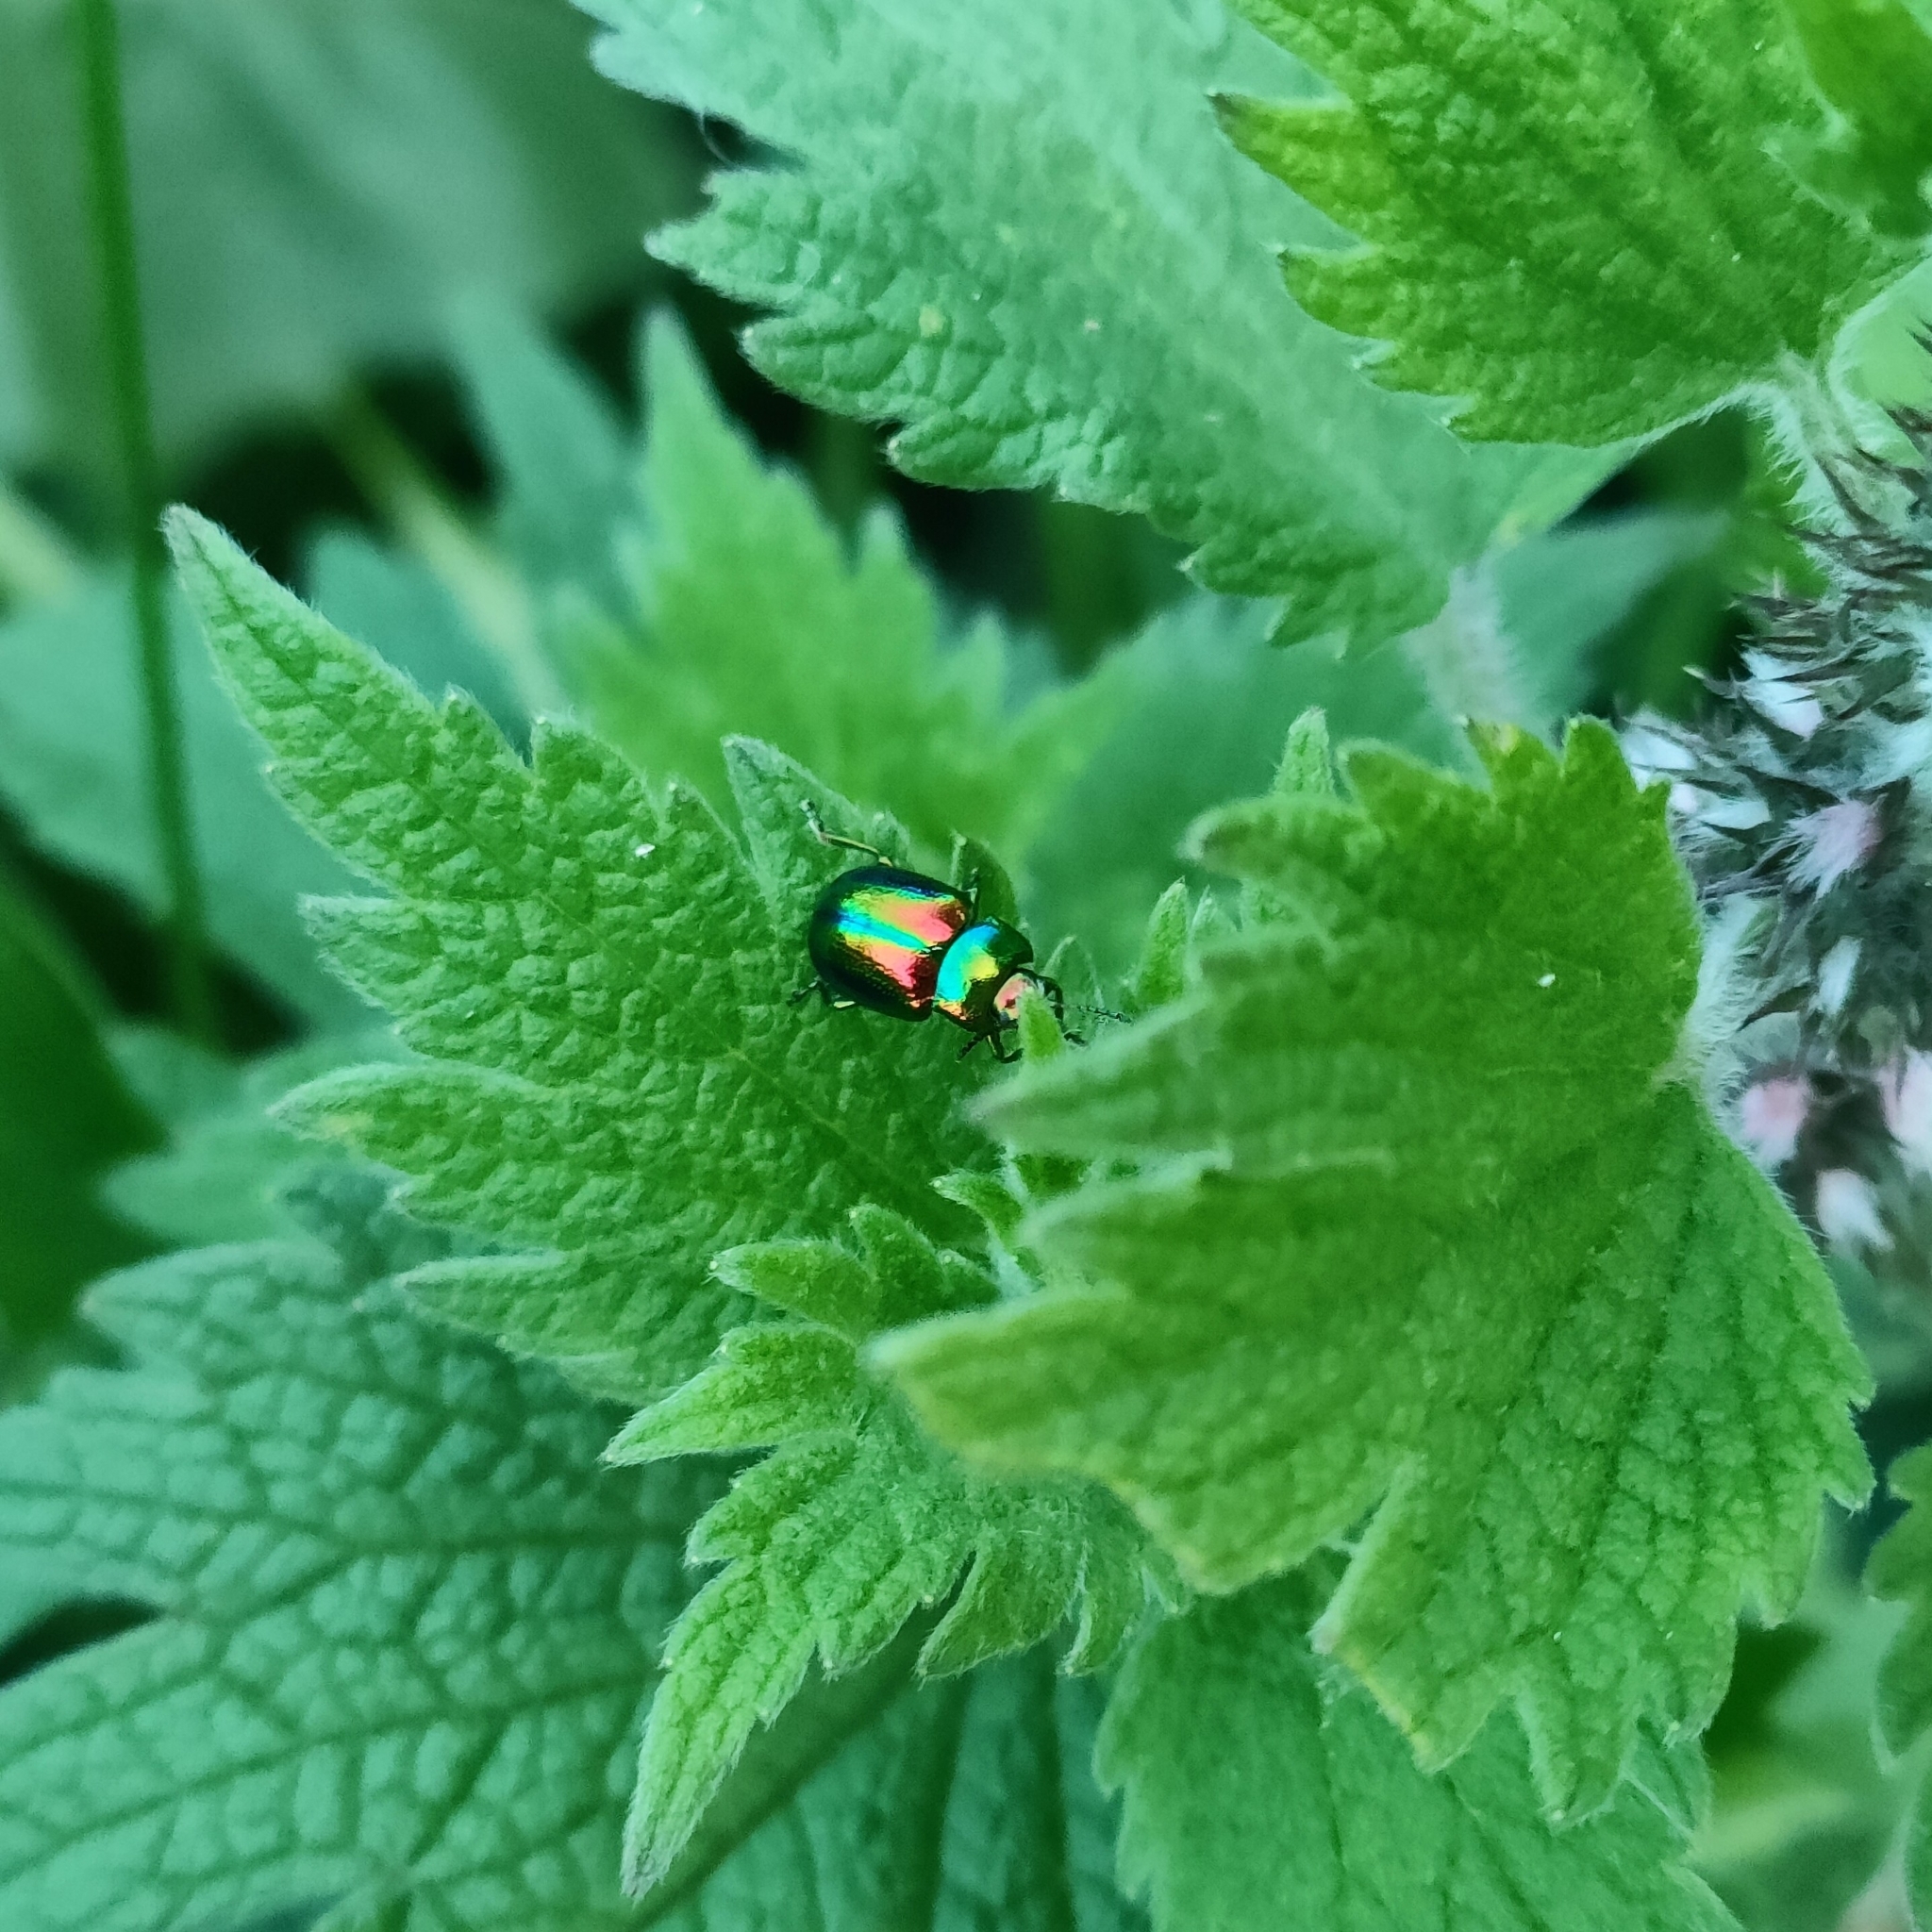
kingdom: Animalia
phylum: Arthropoda
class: Insecta
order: Coleoptera
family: Chrysomelidae
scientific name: Chrysomelidae
